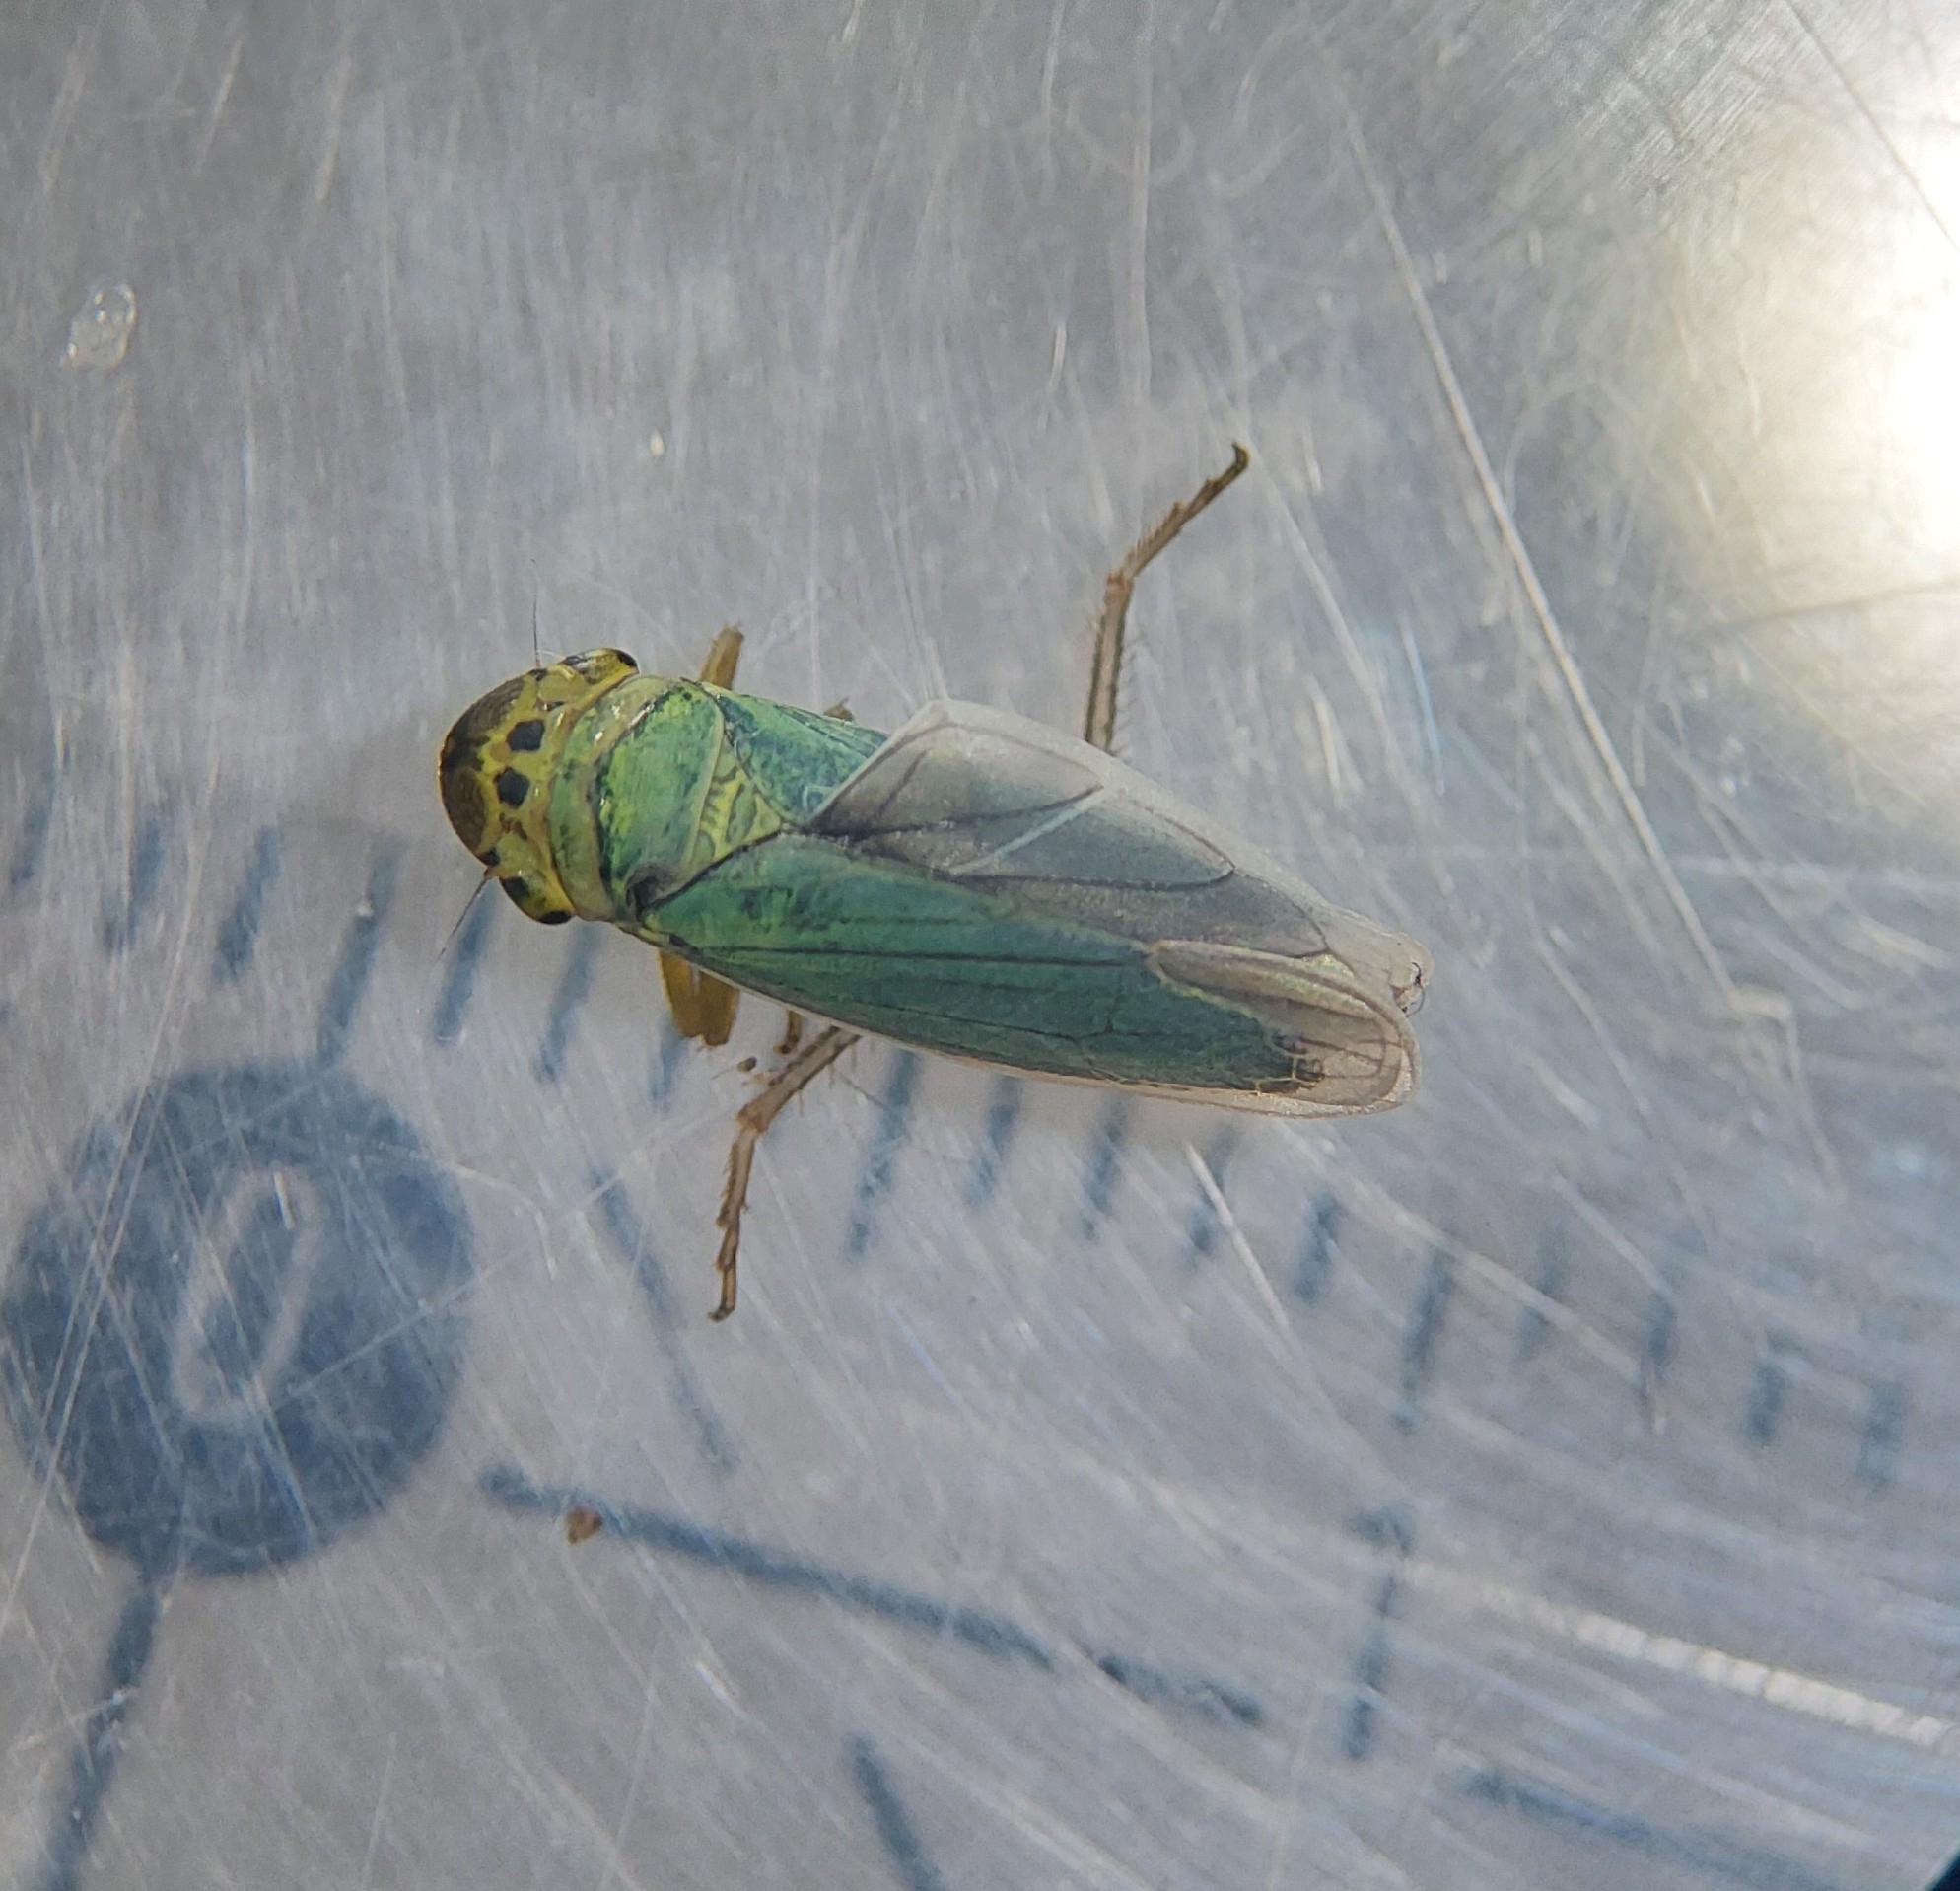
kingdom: Animalia
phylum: Arthropoda
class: Insecta
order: Hemiptera
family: Cicadellidae
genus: Cicadella
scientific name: Cicadella viridis
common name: Leafhopper
